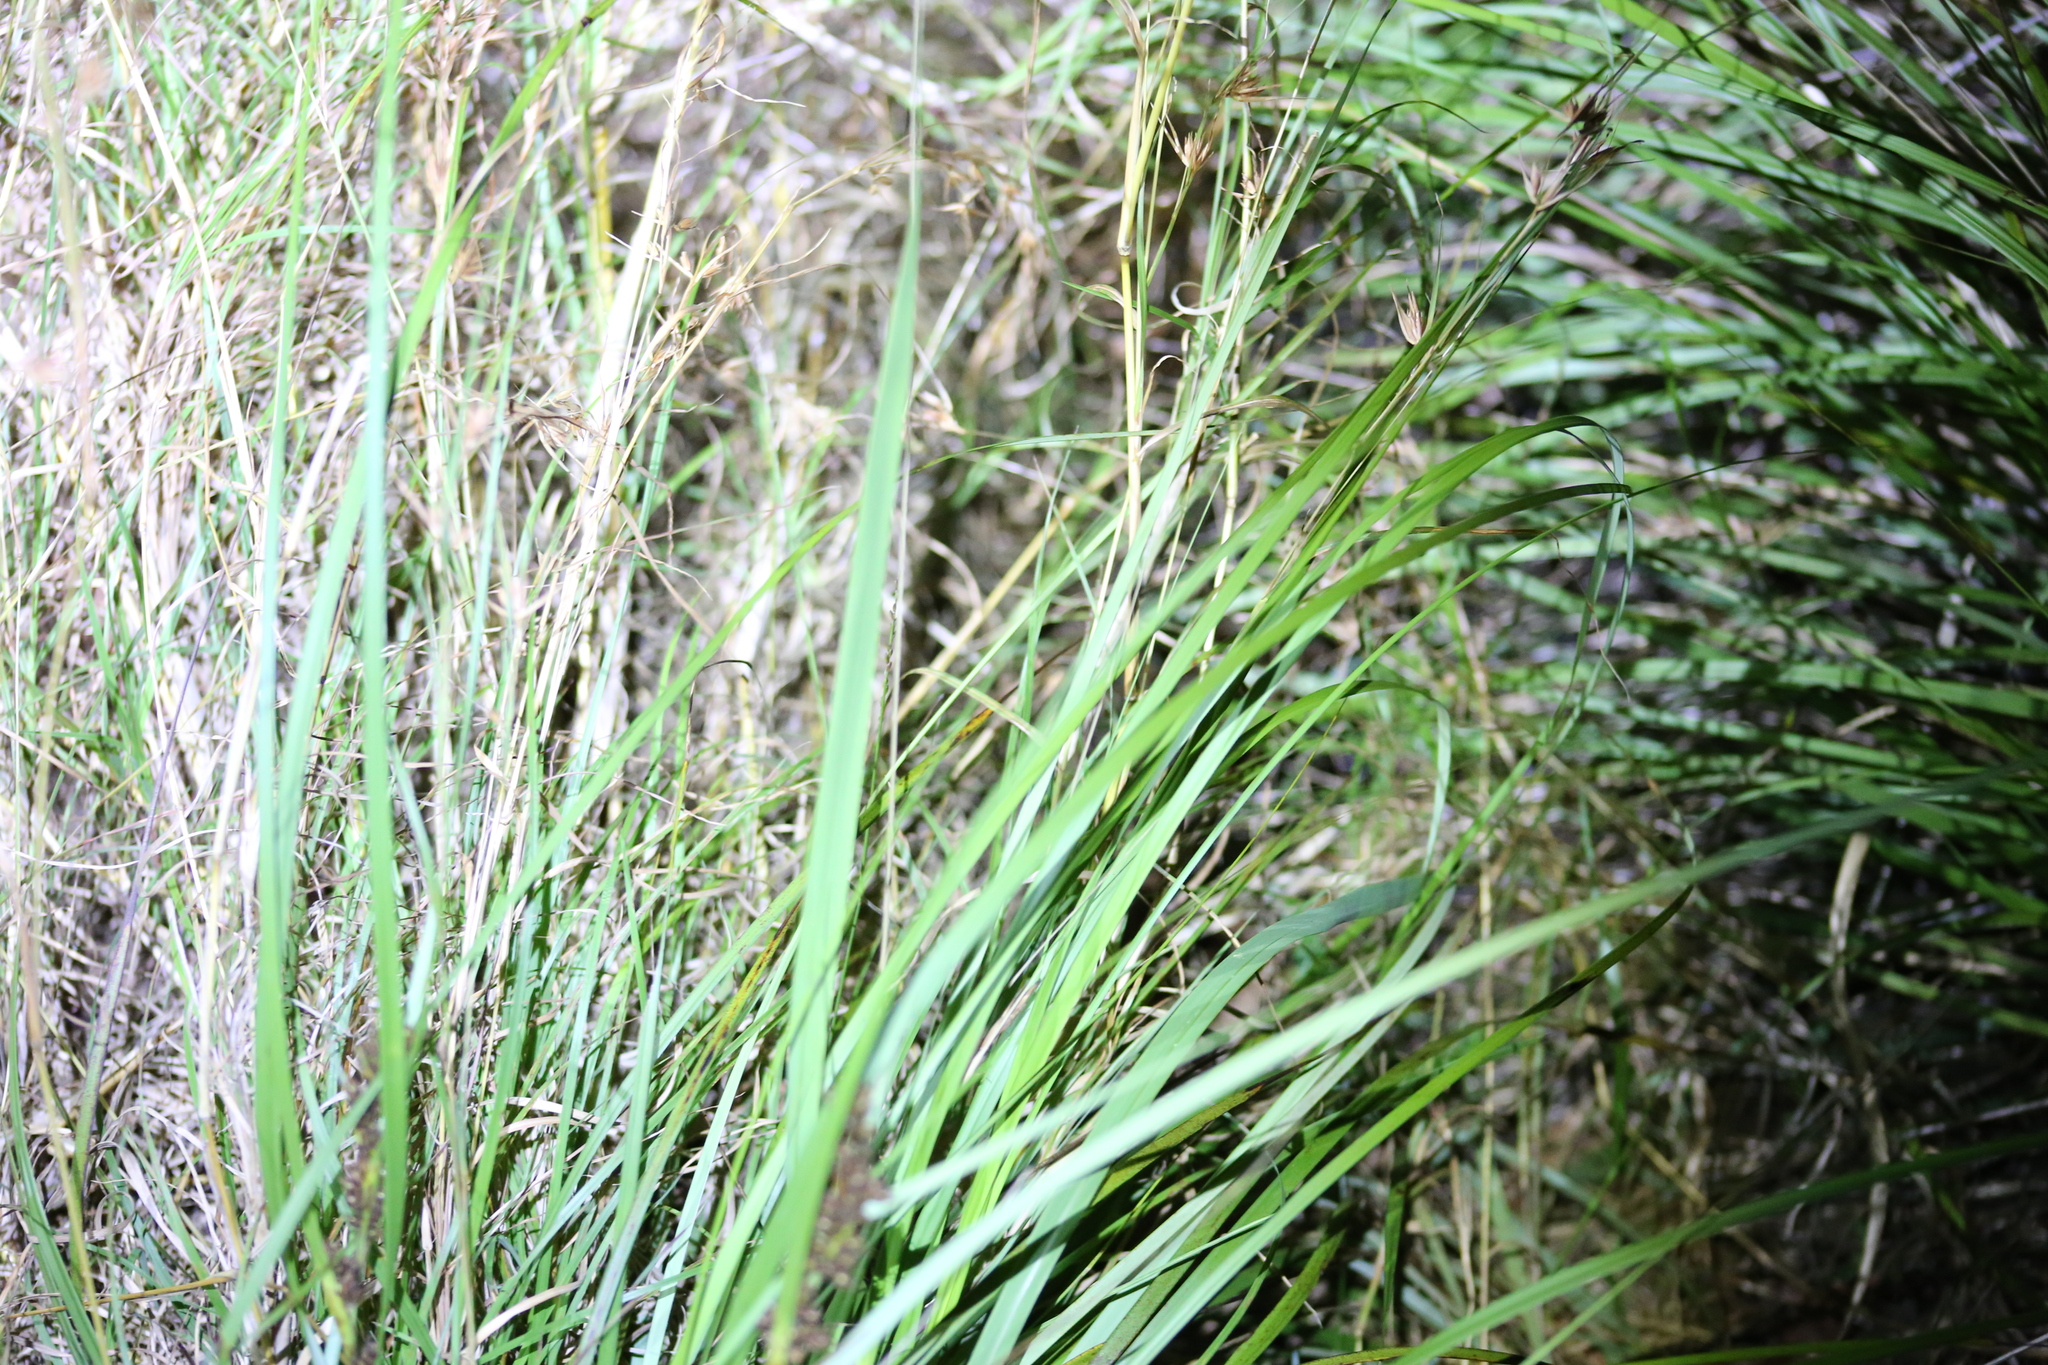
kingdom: Plantae
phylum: Tracheophyta
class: Liliopsida
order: Poales
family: Cyperaceae
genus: Gahnia
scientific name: Gahnia aspera
